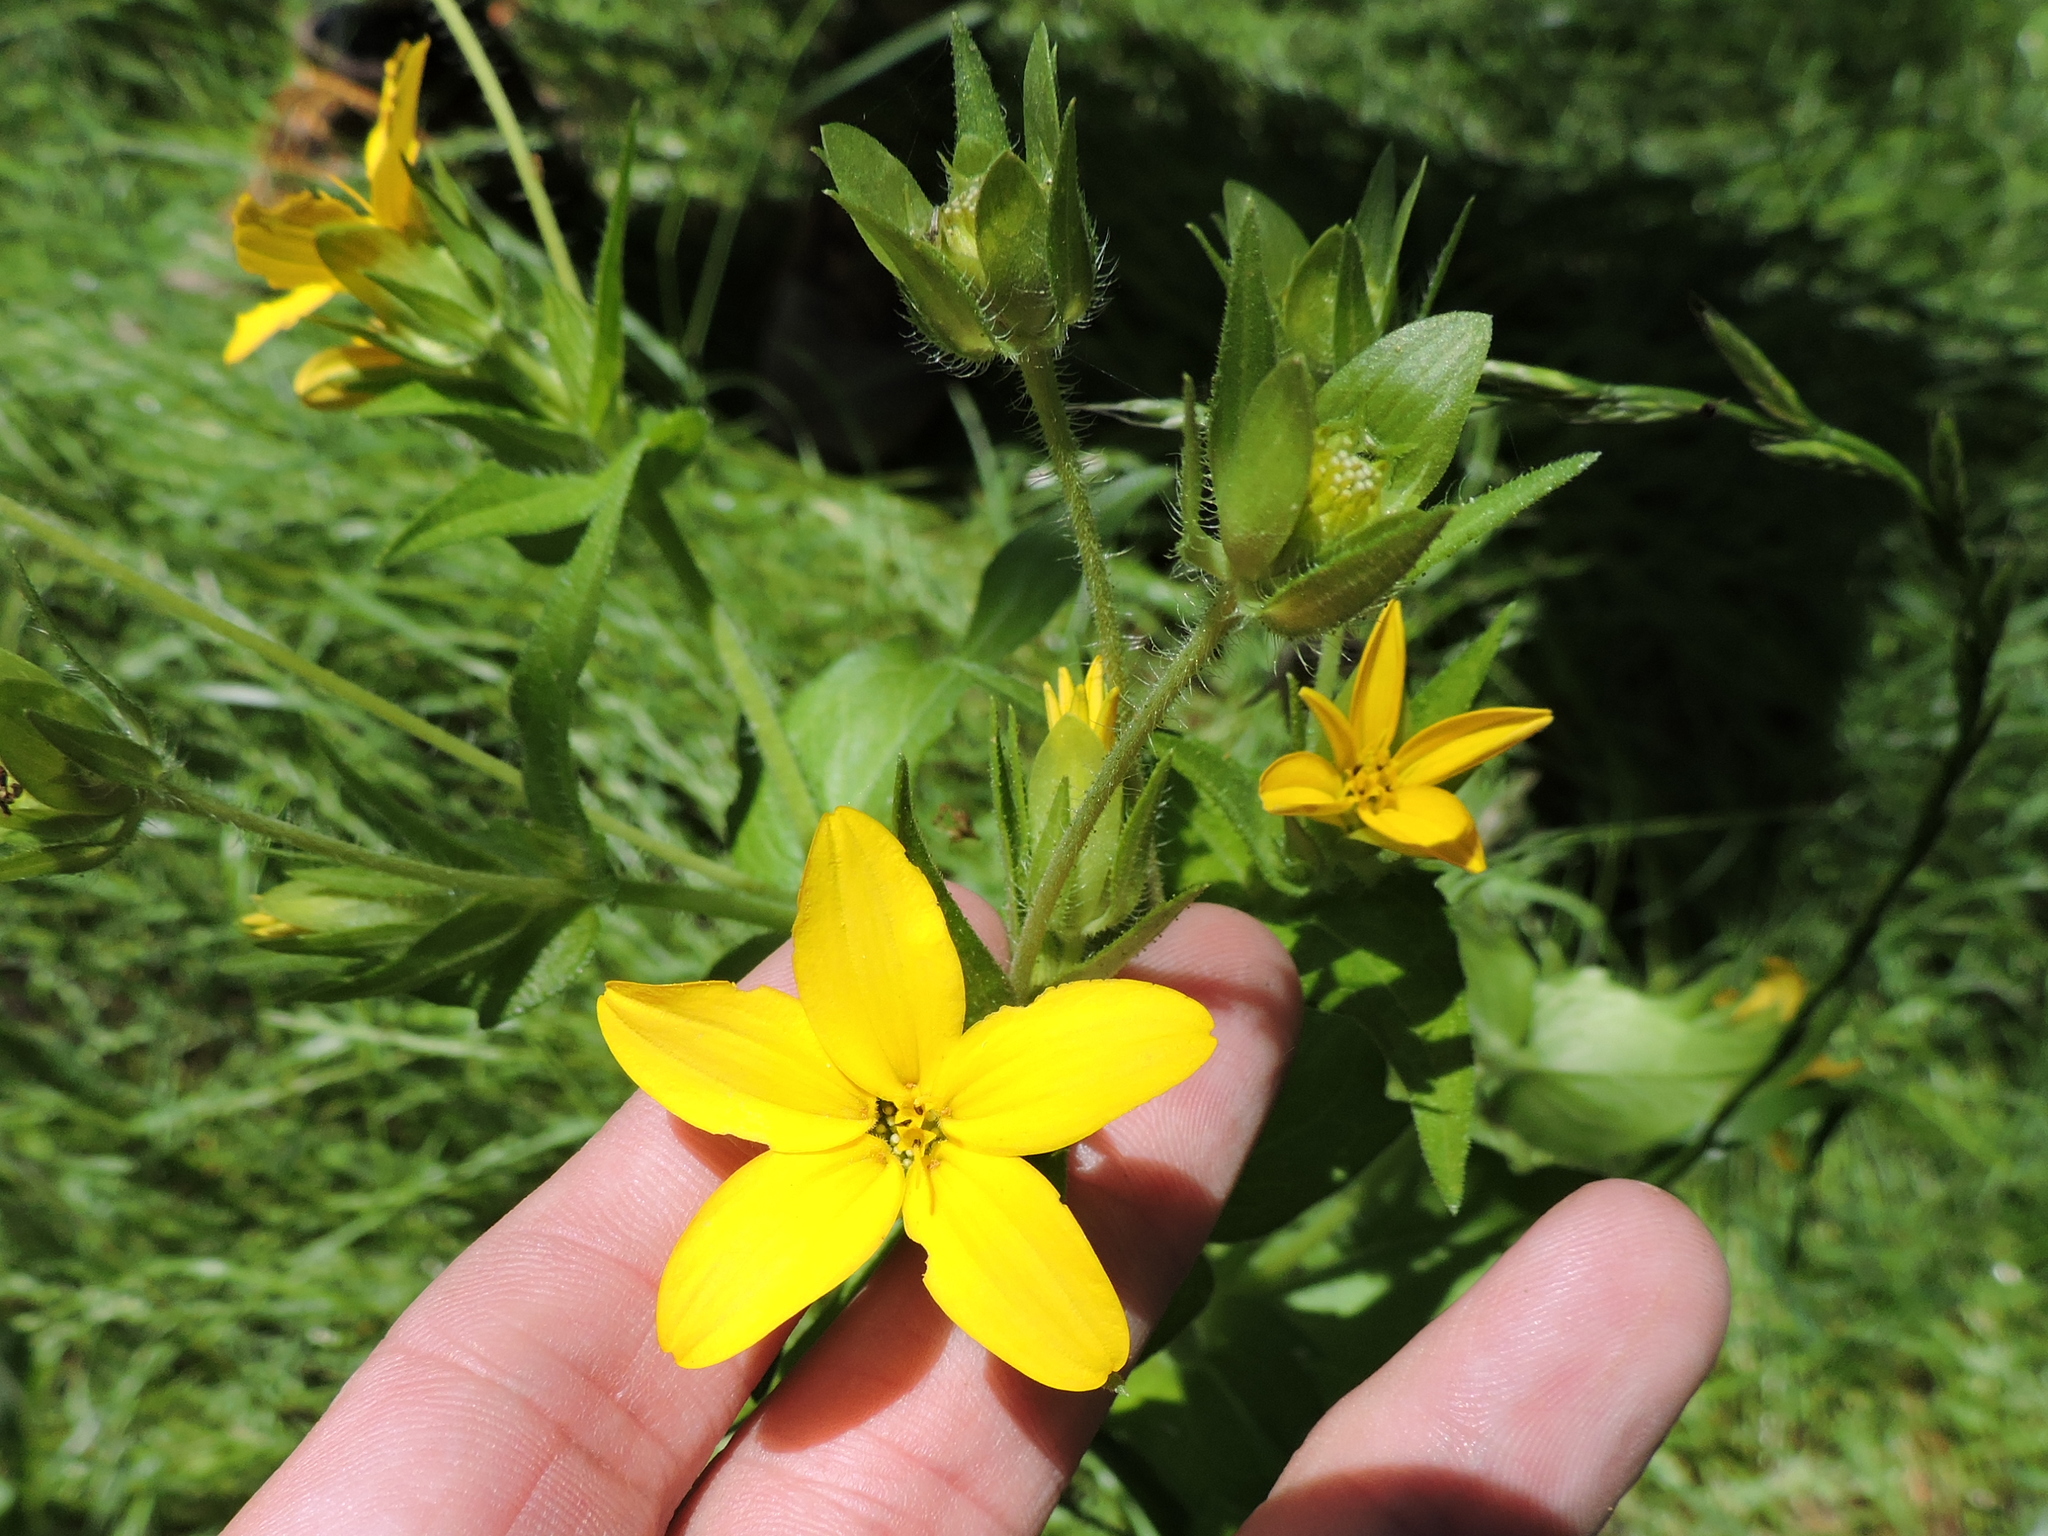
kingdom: Plantae
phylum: Tracheophyta
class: Magnoliopsida
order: Asterales
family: Asteraceae
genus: Lindheimera
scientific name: Lindheimera texana
